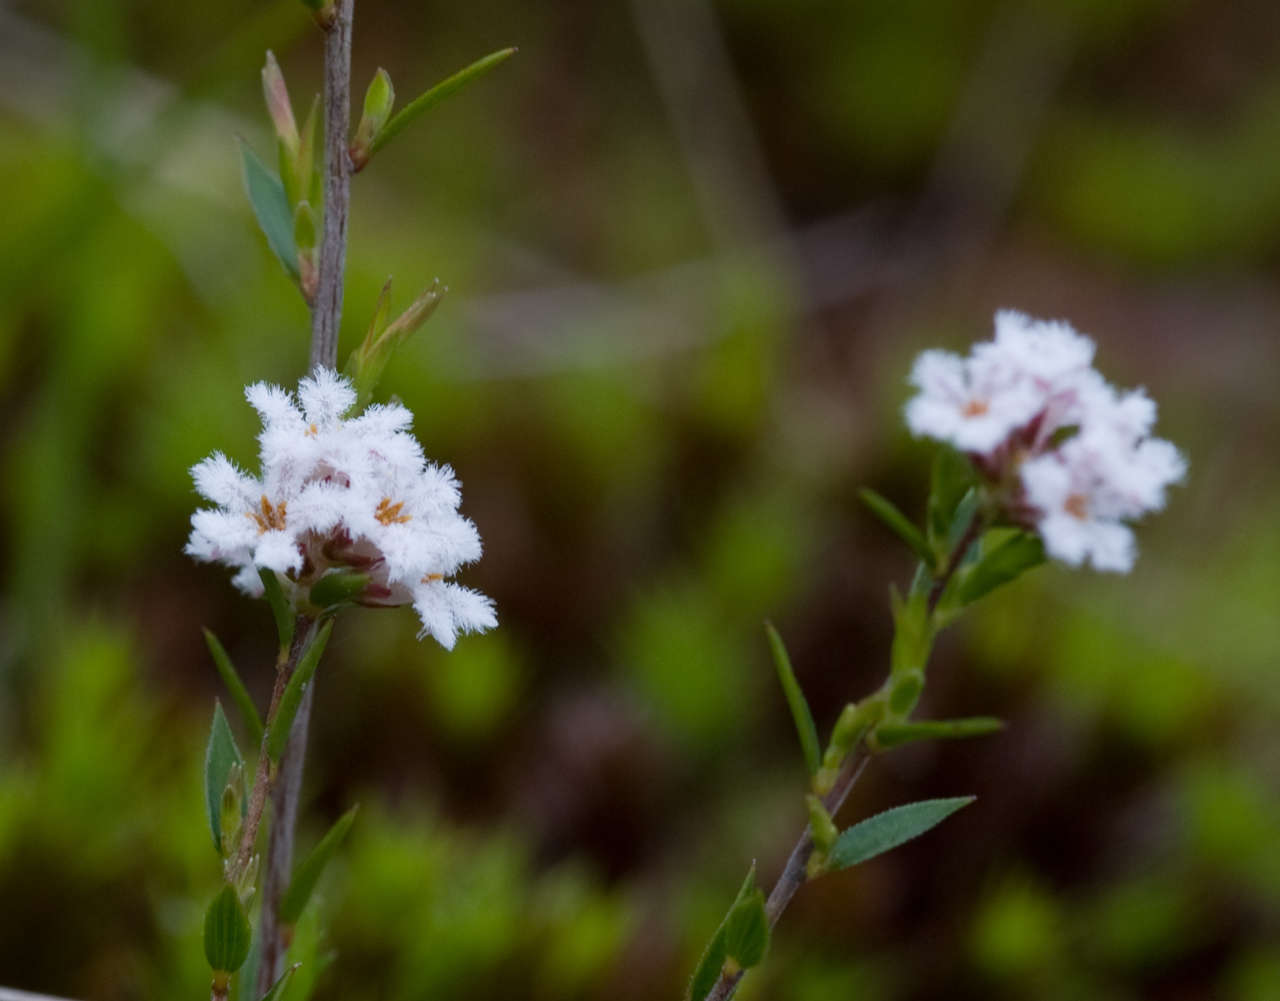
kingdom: Plantae
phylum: Tracheophyta
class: Magnoliopsida
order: Ericales
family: Ericaceae
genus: Leucopogon
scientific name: Leucopogon virgatus
